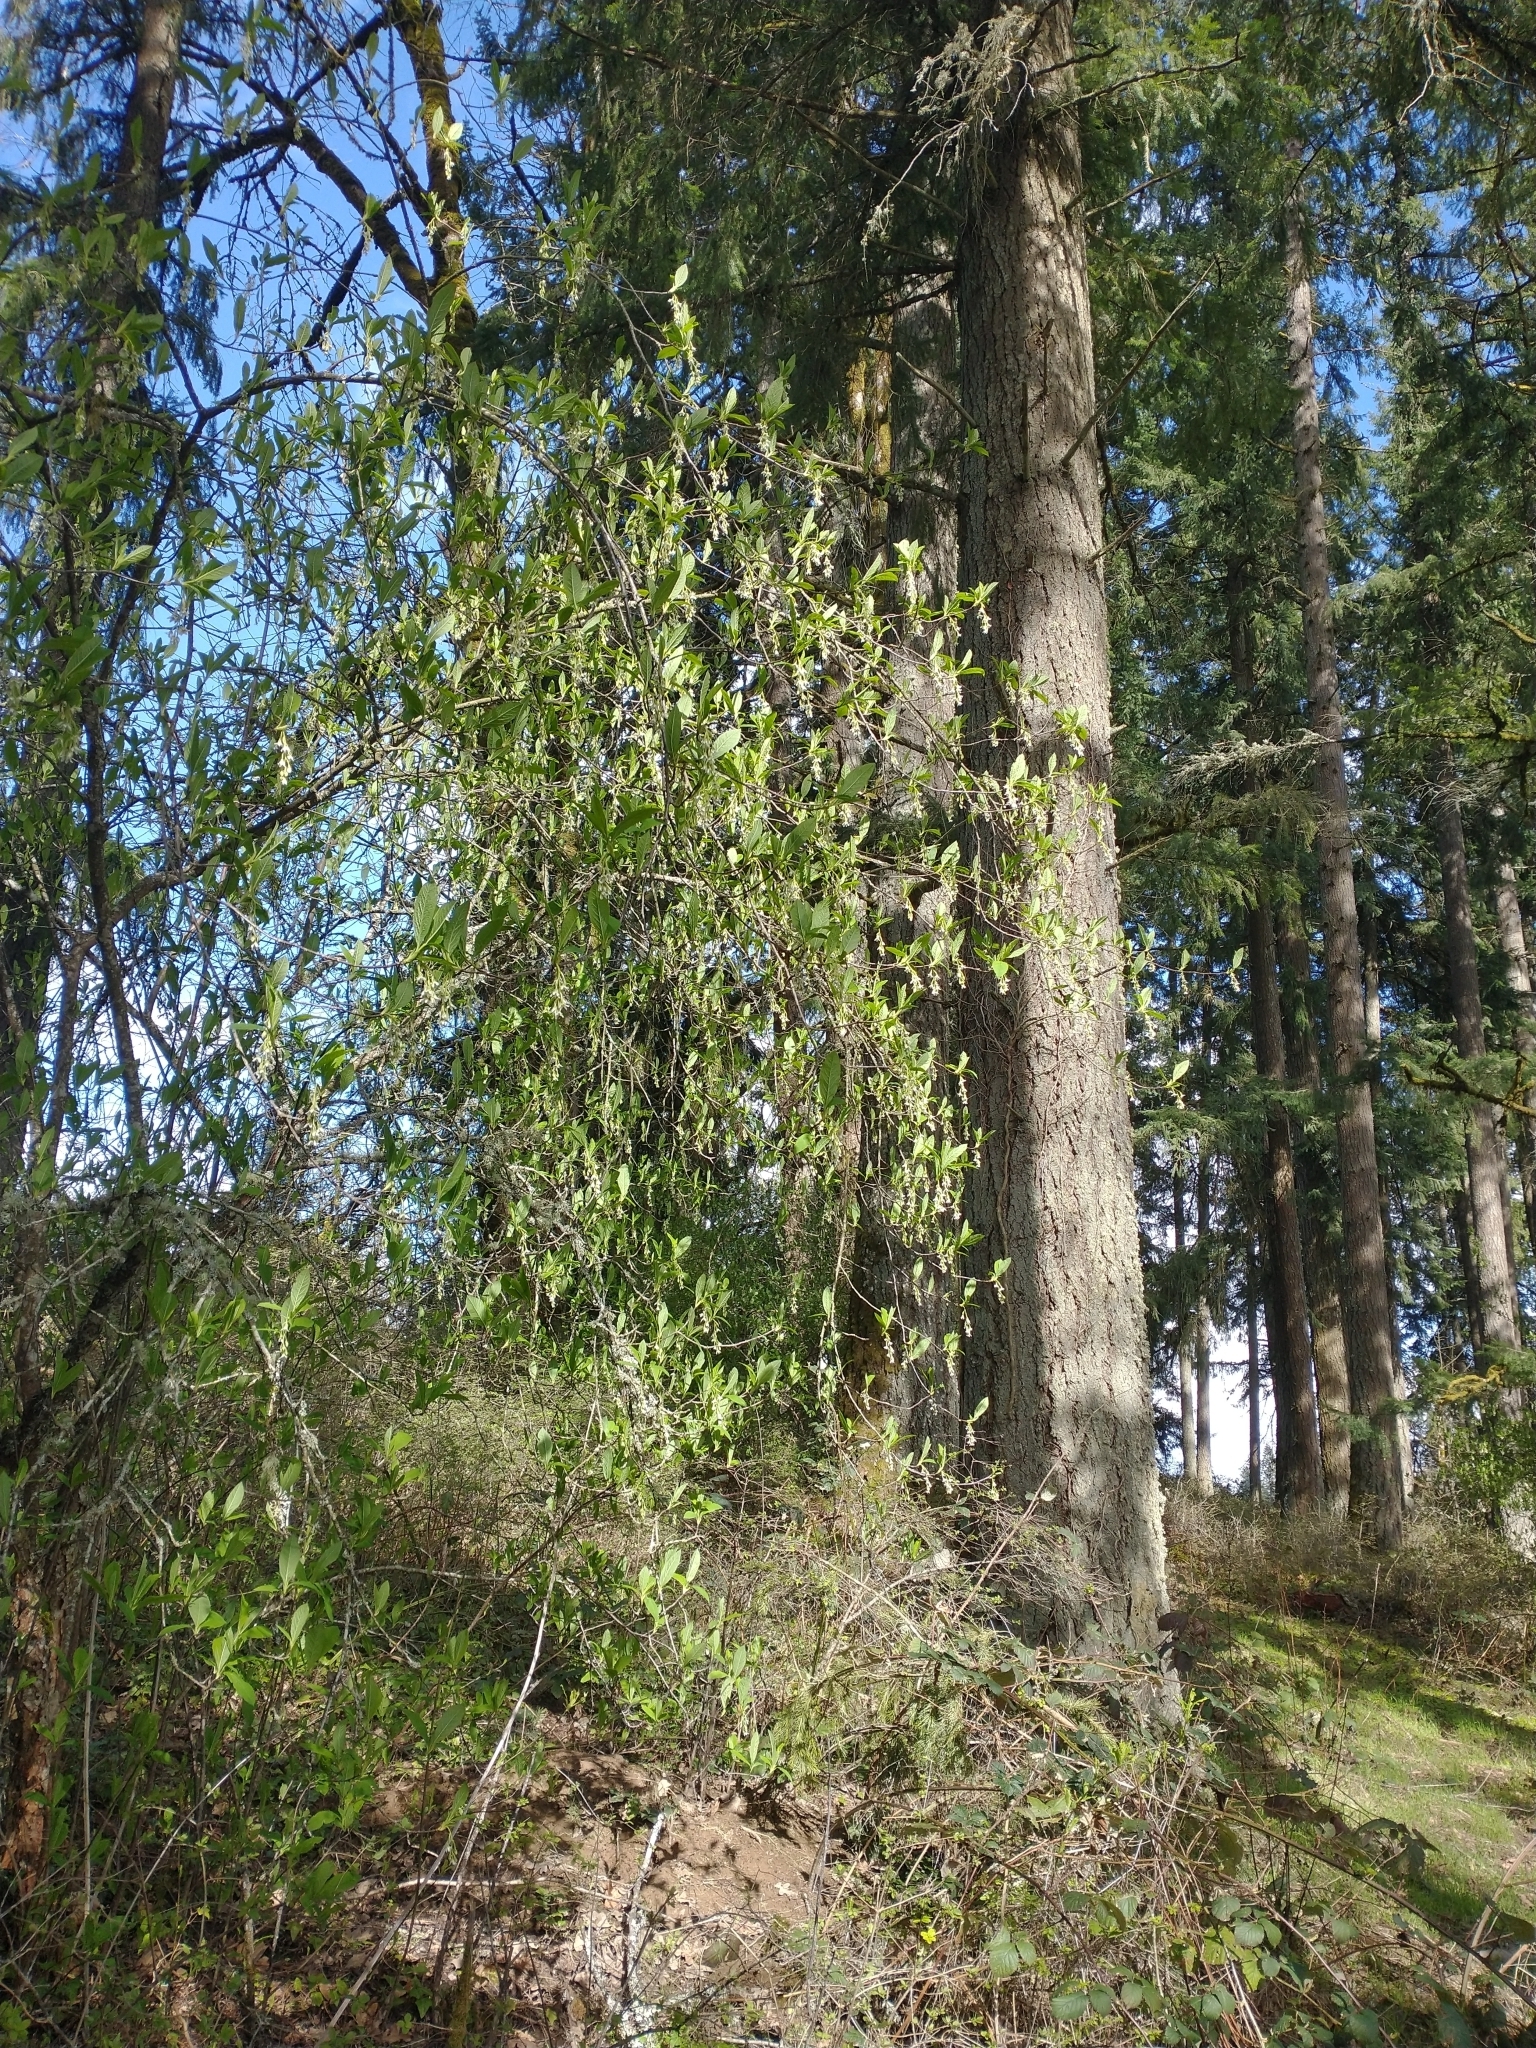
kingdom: Plantae
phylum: Tracheophyta
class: Pinopsida
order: Pinales
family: Pinaceae
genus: Pseudotsuga
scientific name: Pseudotsuga menziesii
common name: Douglas fir
